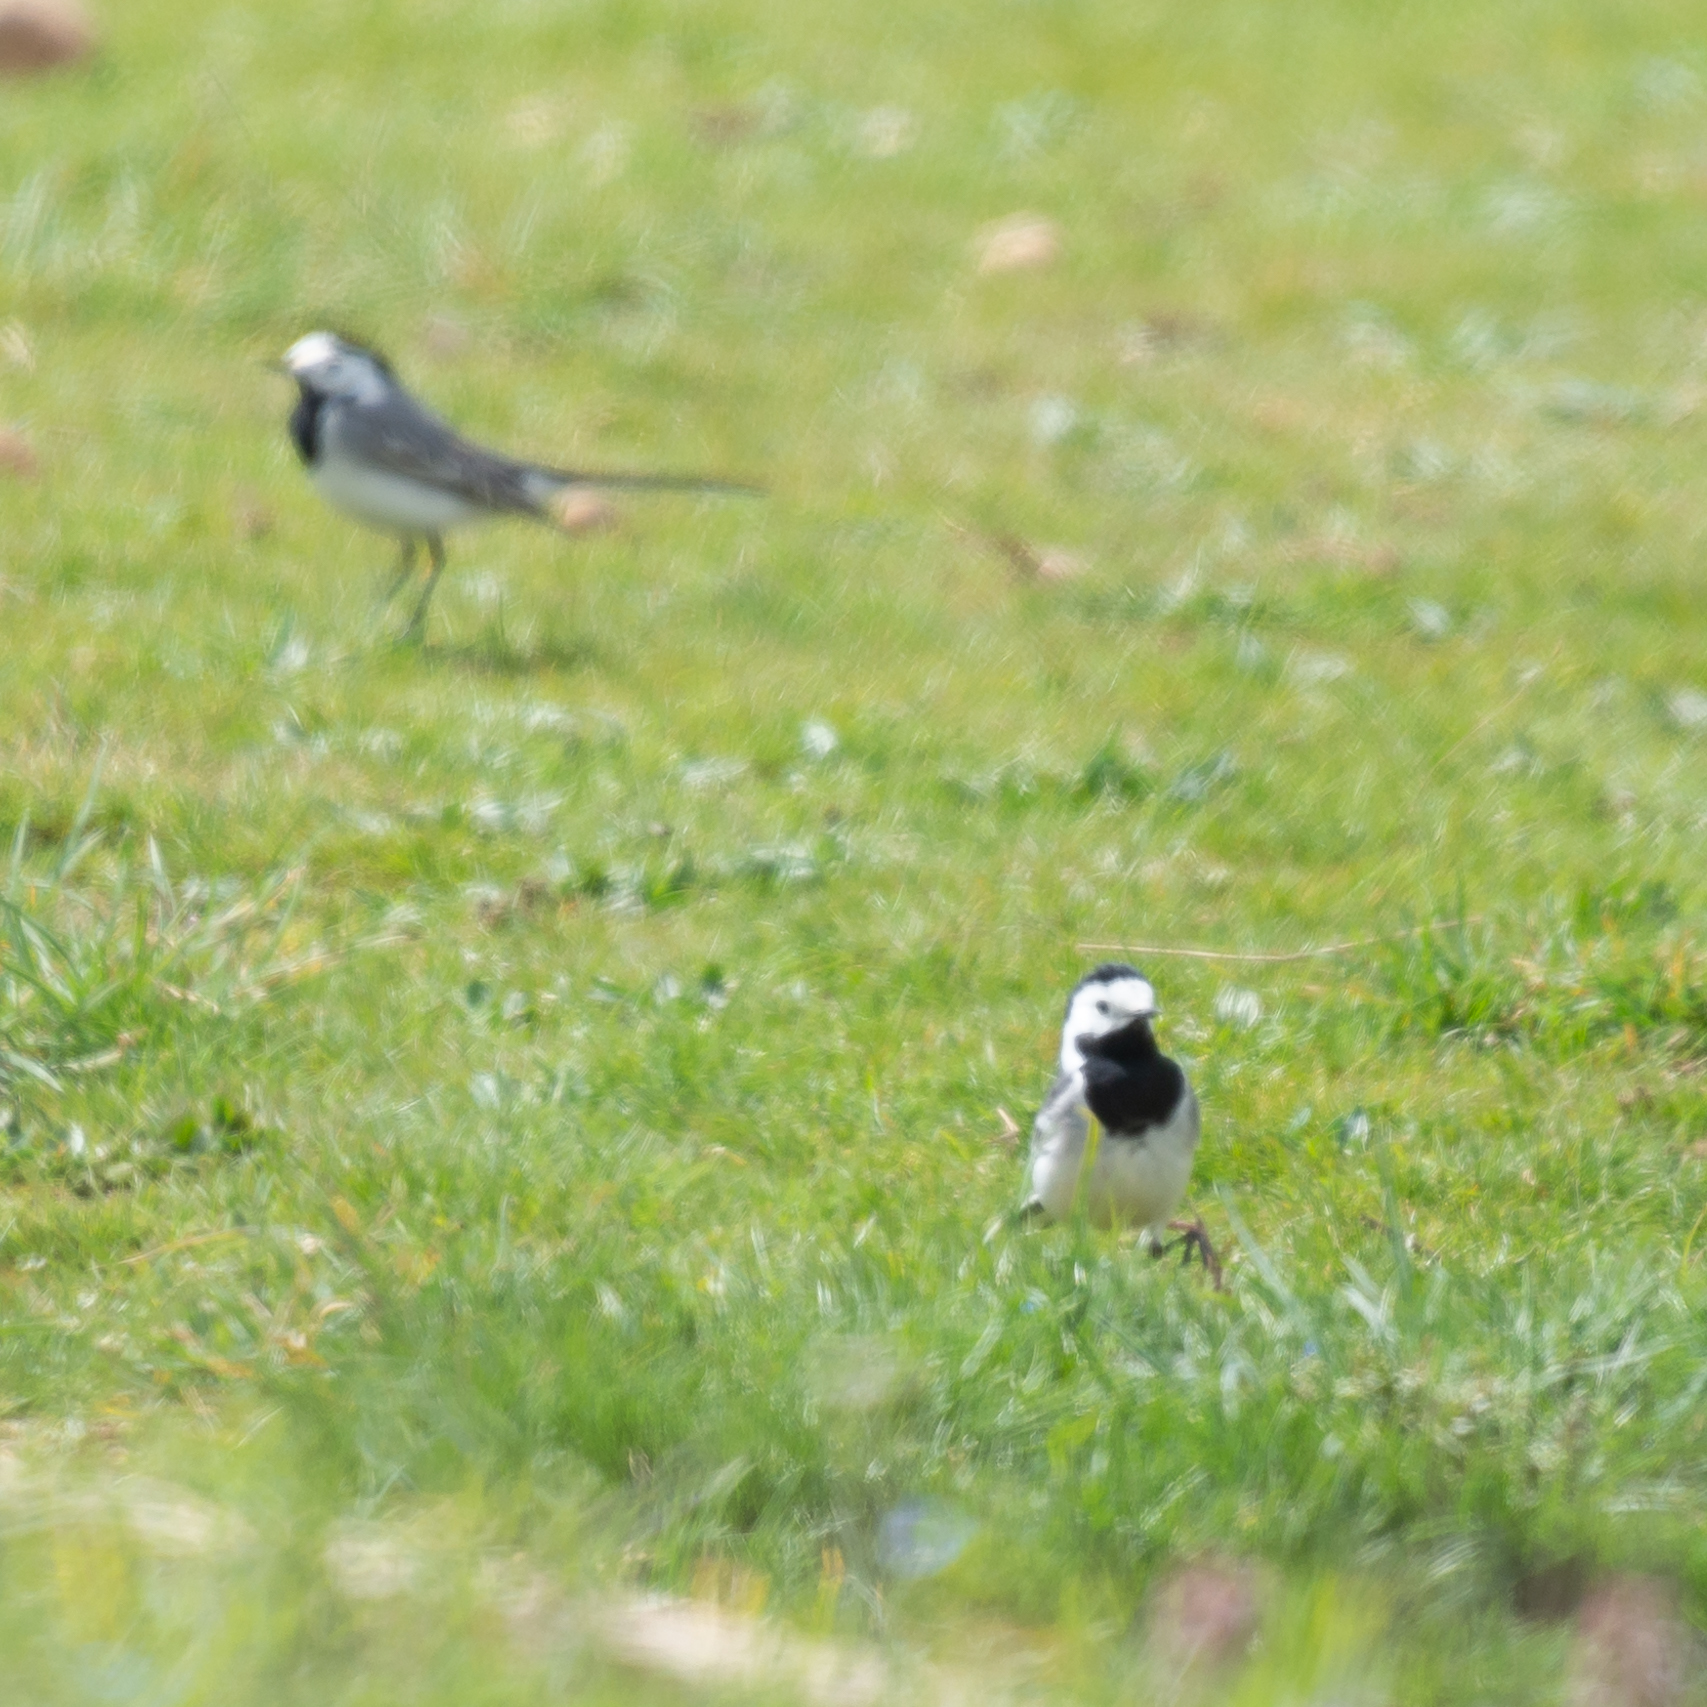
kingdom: Animalia
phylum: Chordata
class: Aves
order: Passeriformes
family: Motacillidae
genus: Motacilla
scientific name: Motacilla alba
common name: White wagtail
